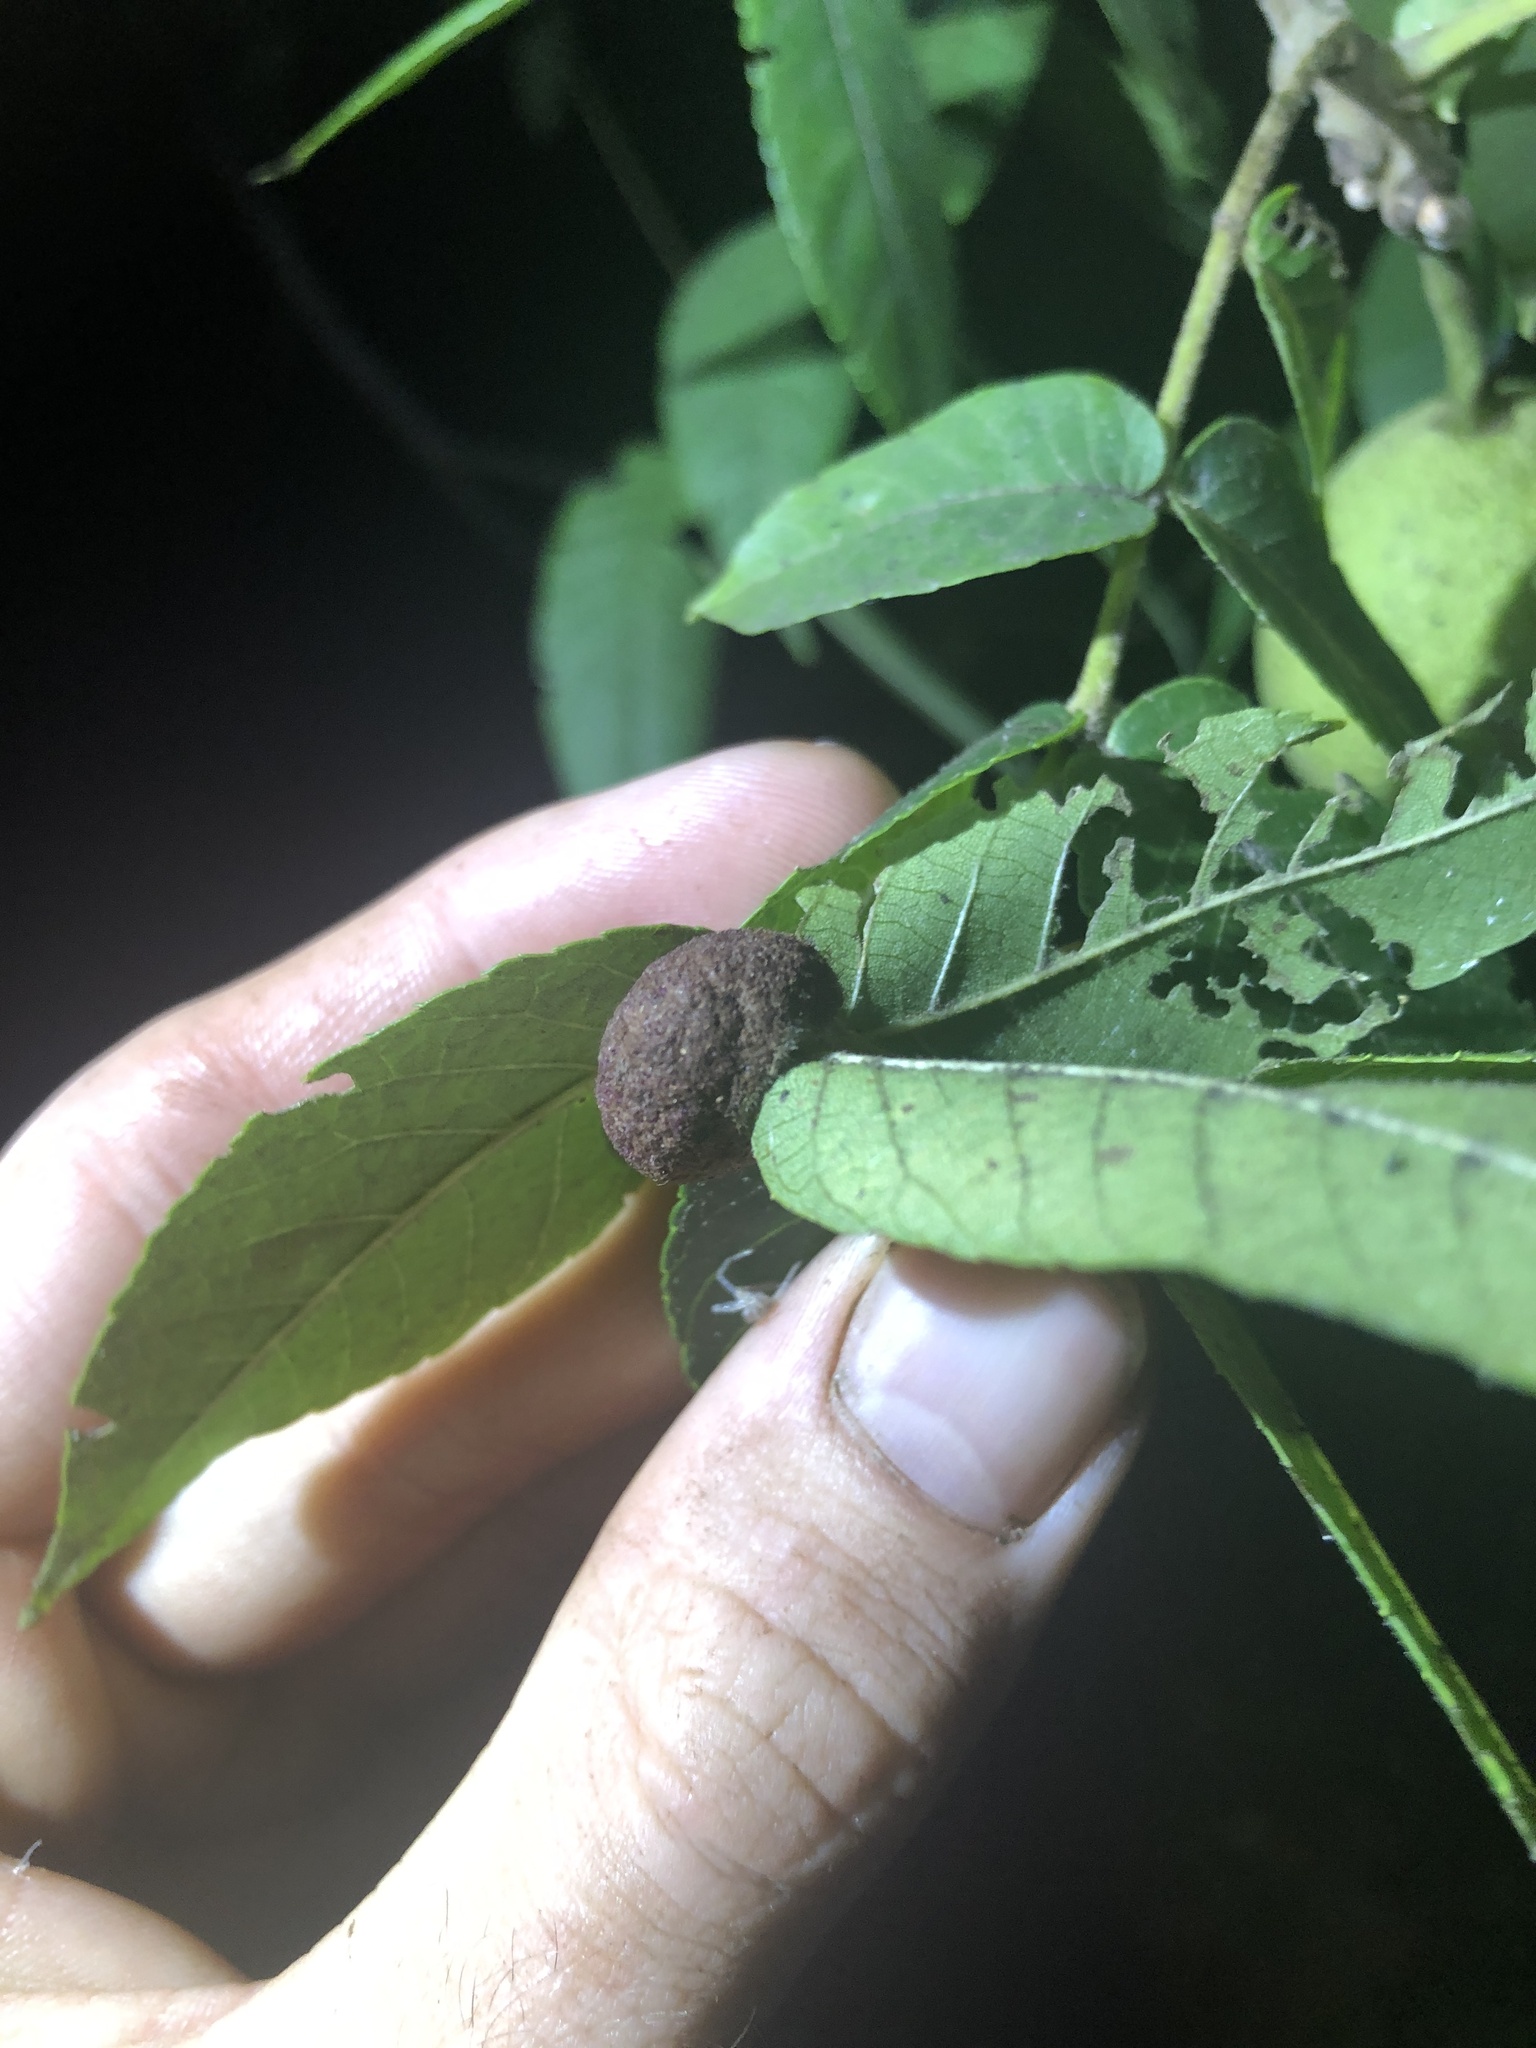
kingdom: Animalia
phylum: Arthropoda
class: Arachnida
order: Trombidiformes
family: Eriophyidae
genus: Aceria
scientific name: Aceria
